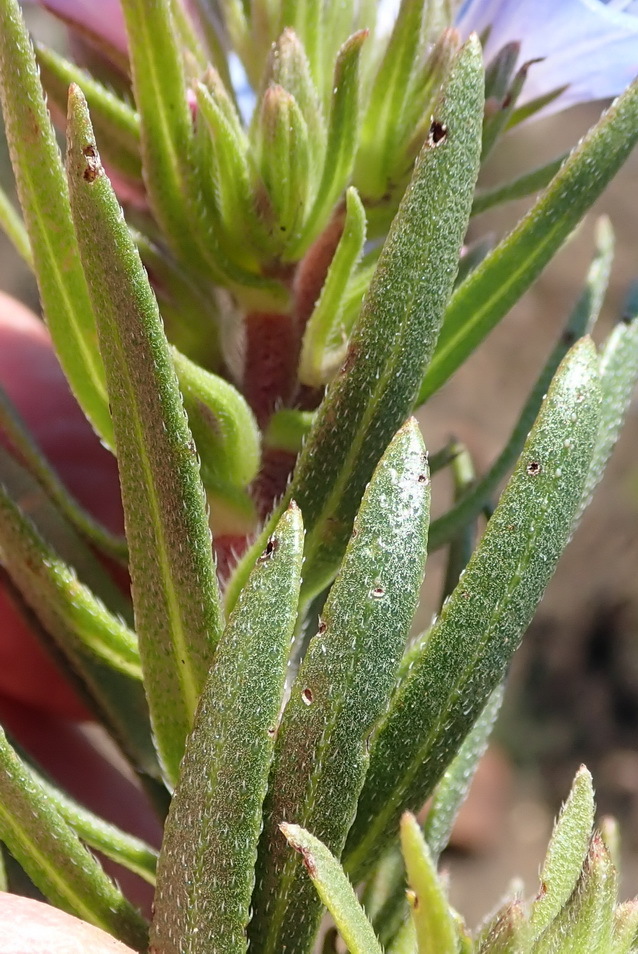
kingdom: Plantae
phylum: Tracheophyta
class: Magnoliopsida
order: Boraginales
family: Boraginaceae
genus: Lobostemon
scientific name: Lobostemon fruticosus
